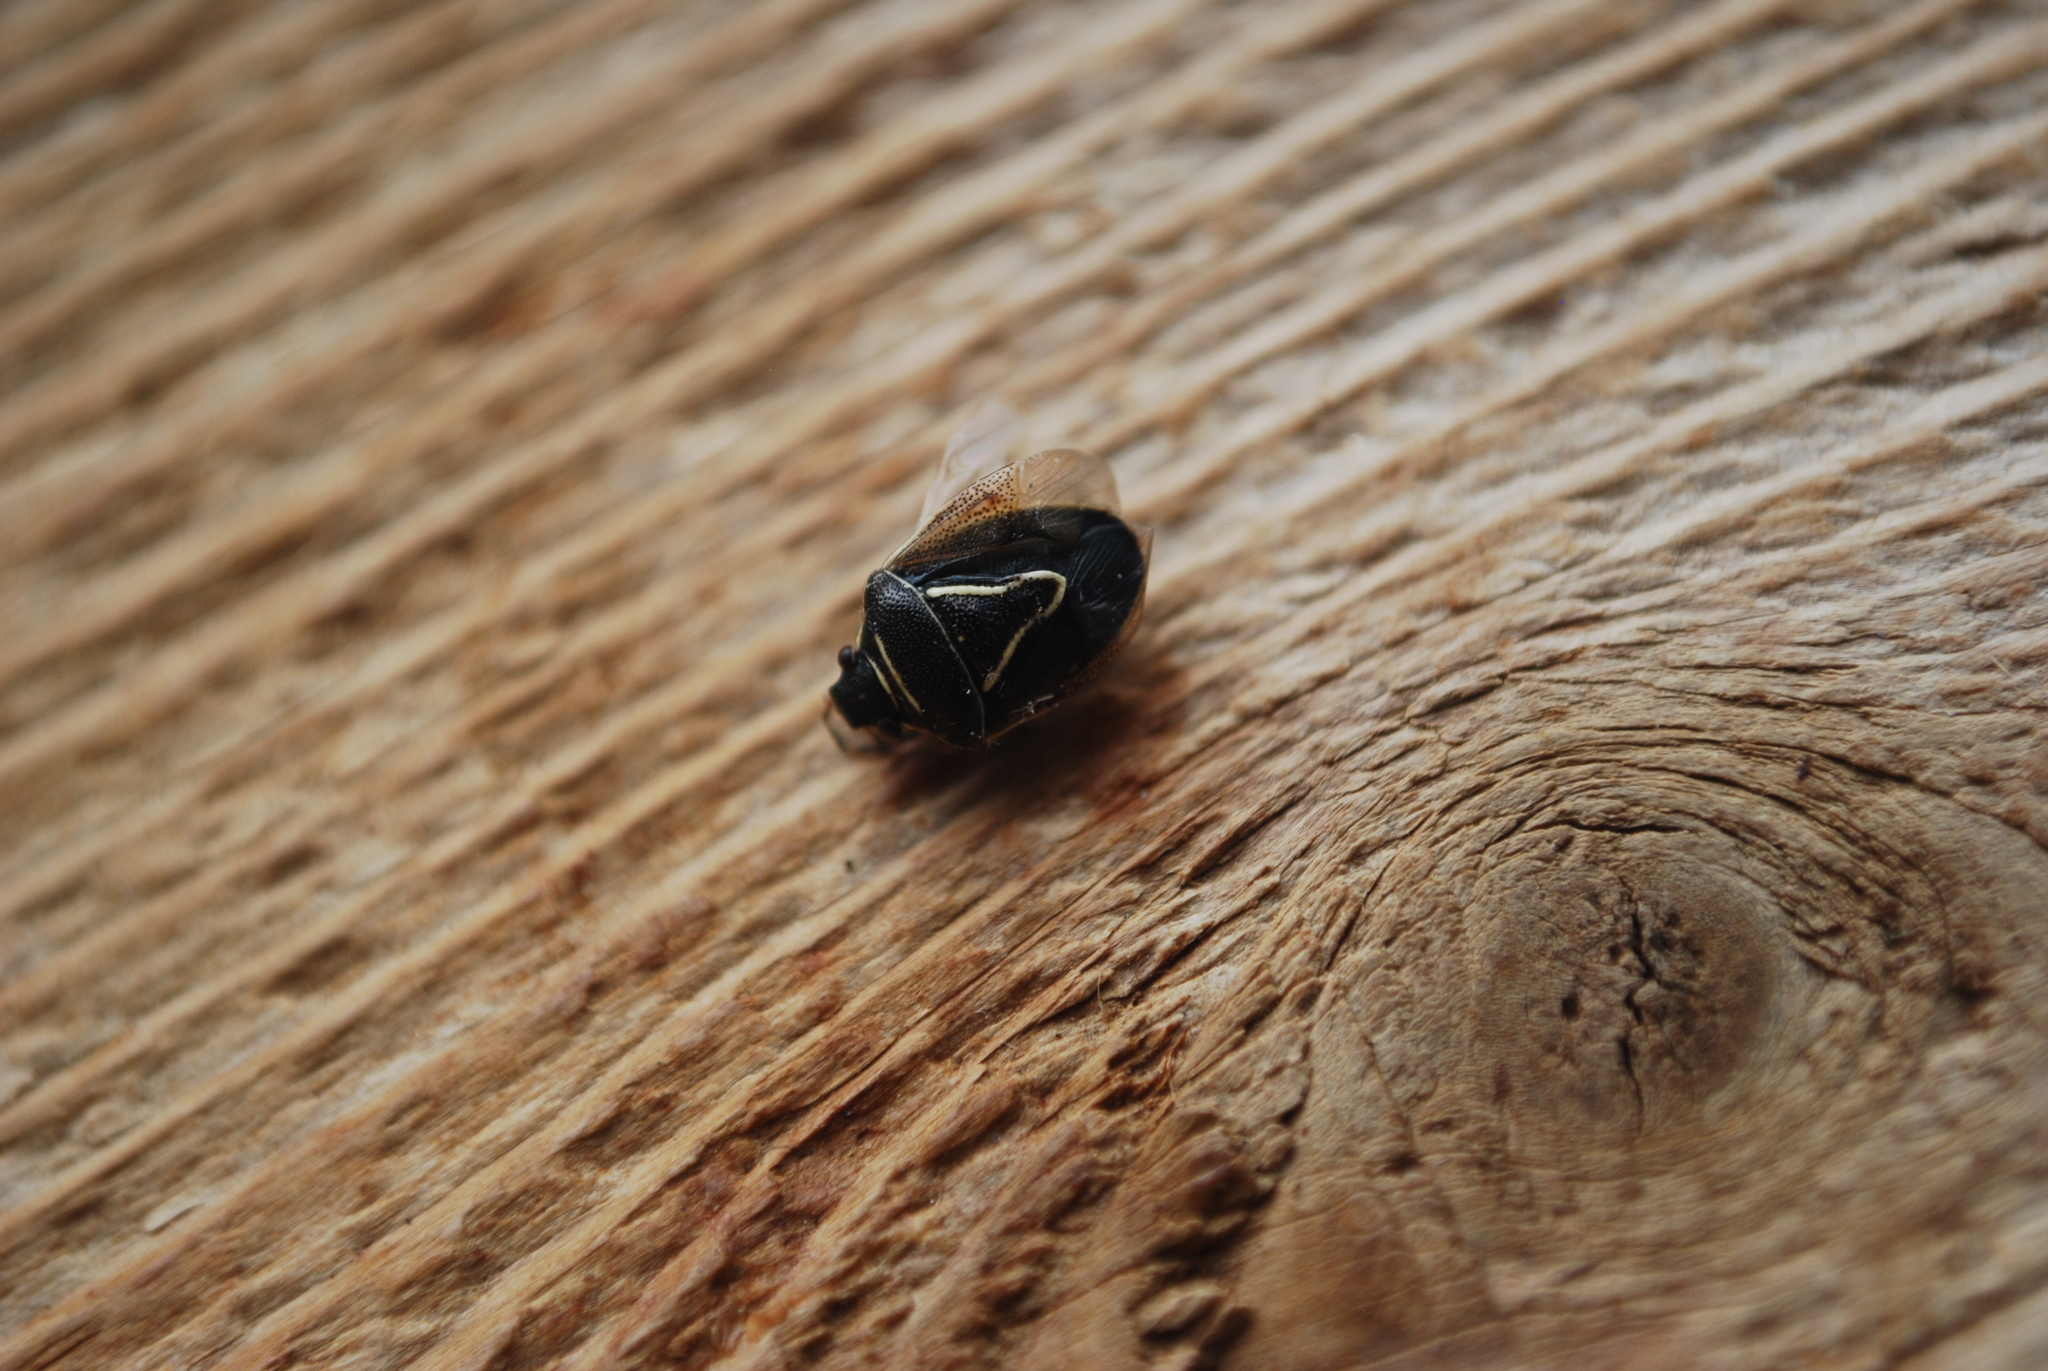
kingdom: Animalia
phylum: Arthropoda
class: Insecta
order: Hemiptera
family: Pentatomidae
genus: Mormidea
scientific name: Mormidea lugens
